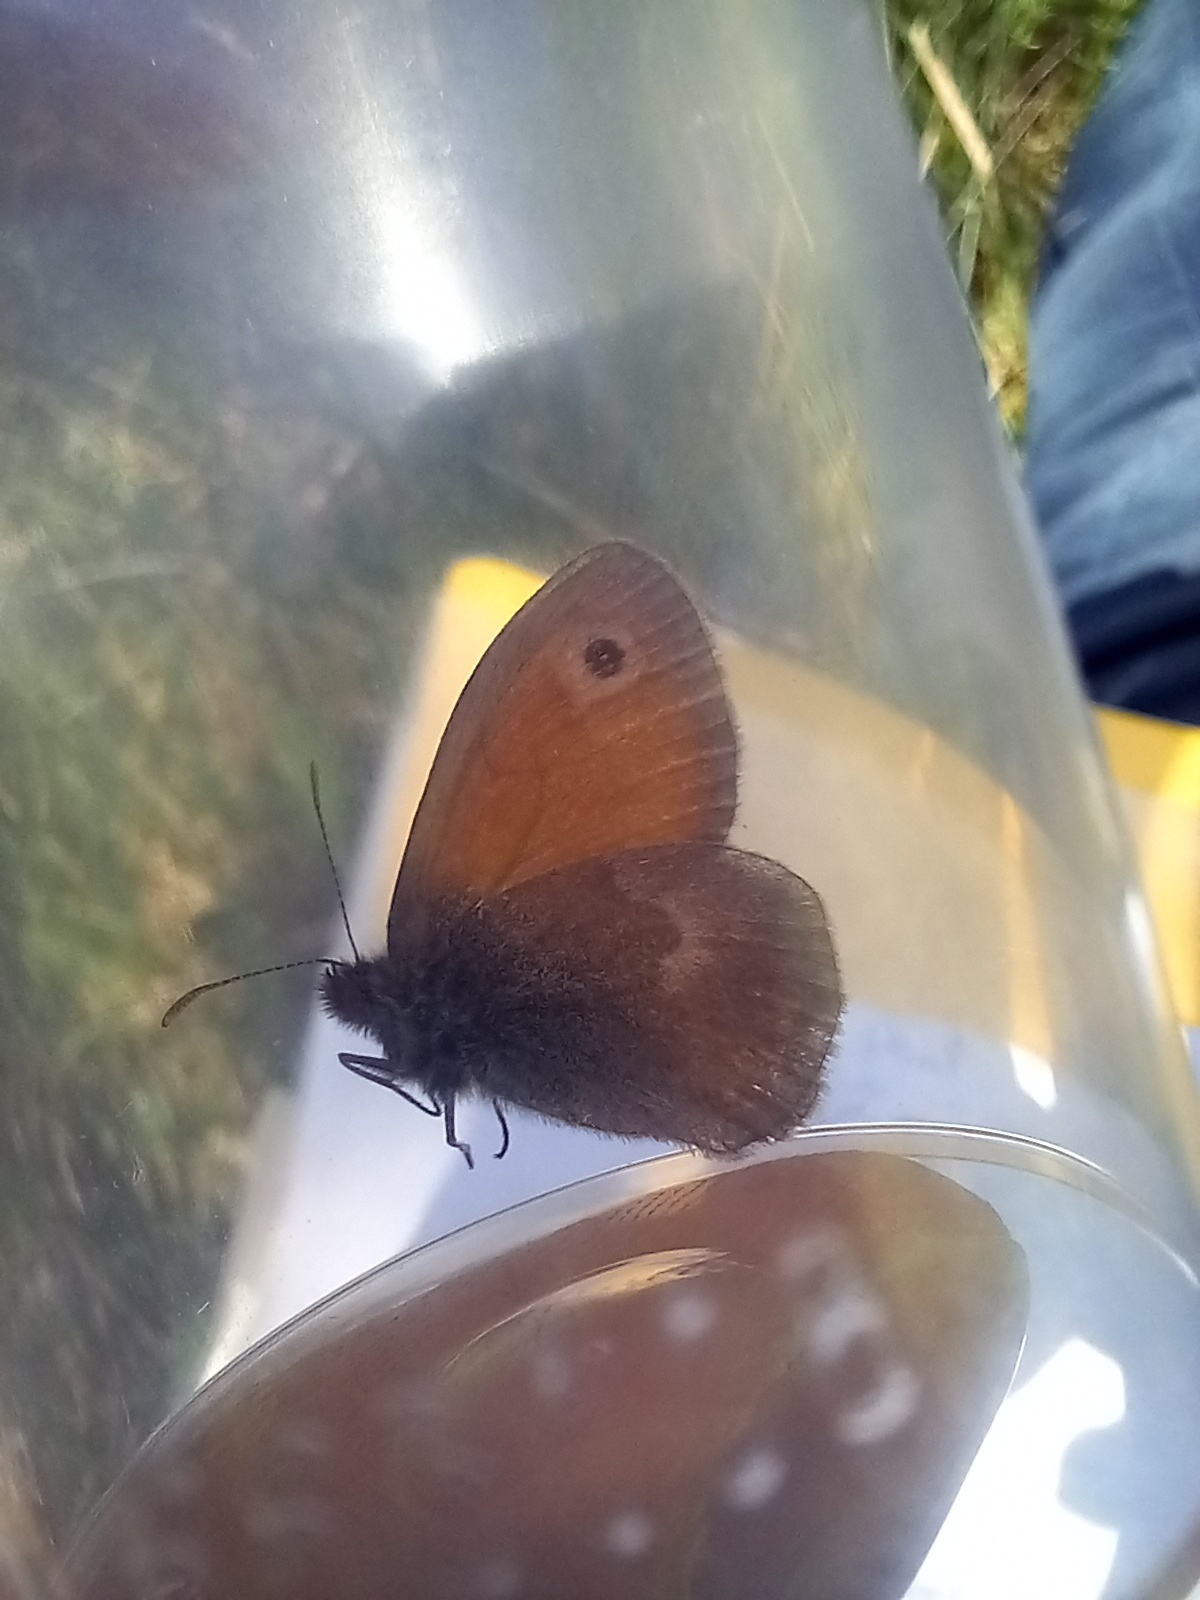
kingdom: Animalia
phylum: Arthropoda
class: Insecta
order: Lepidoptera
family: Nymphalidae
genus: Coenonympha
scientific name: Coenonympha pamphilus
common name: Small heath
